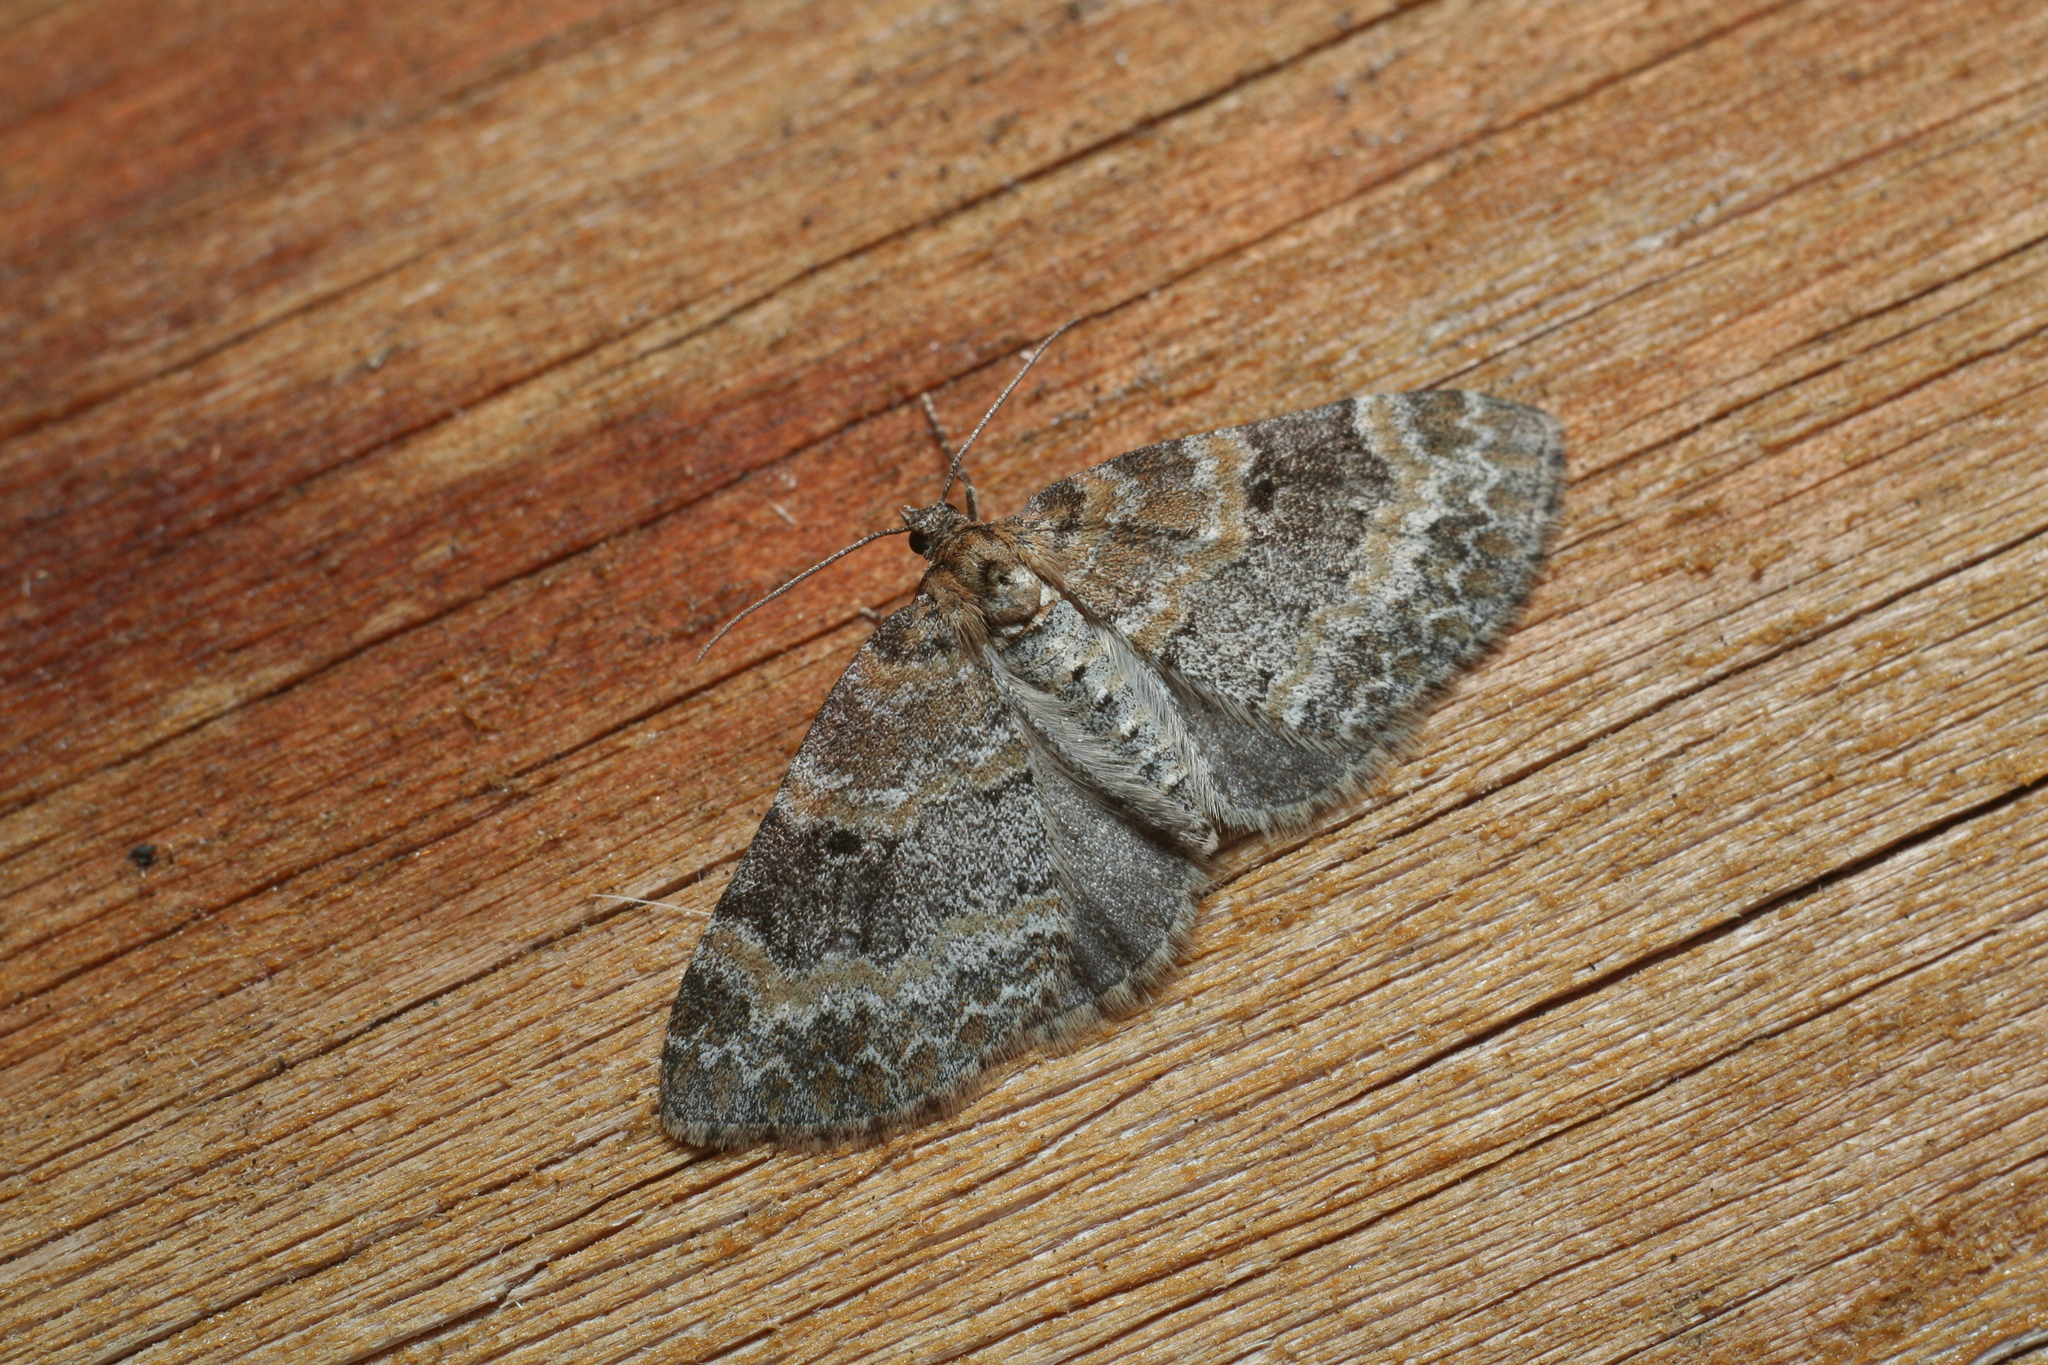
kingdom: Animalia
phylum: Arthropoda
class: Insecta
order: Lepidoptera
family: Geometridae
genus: Pterapherapteryx
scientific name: Pterapherapteryx sexalata
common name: Small seraphim
